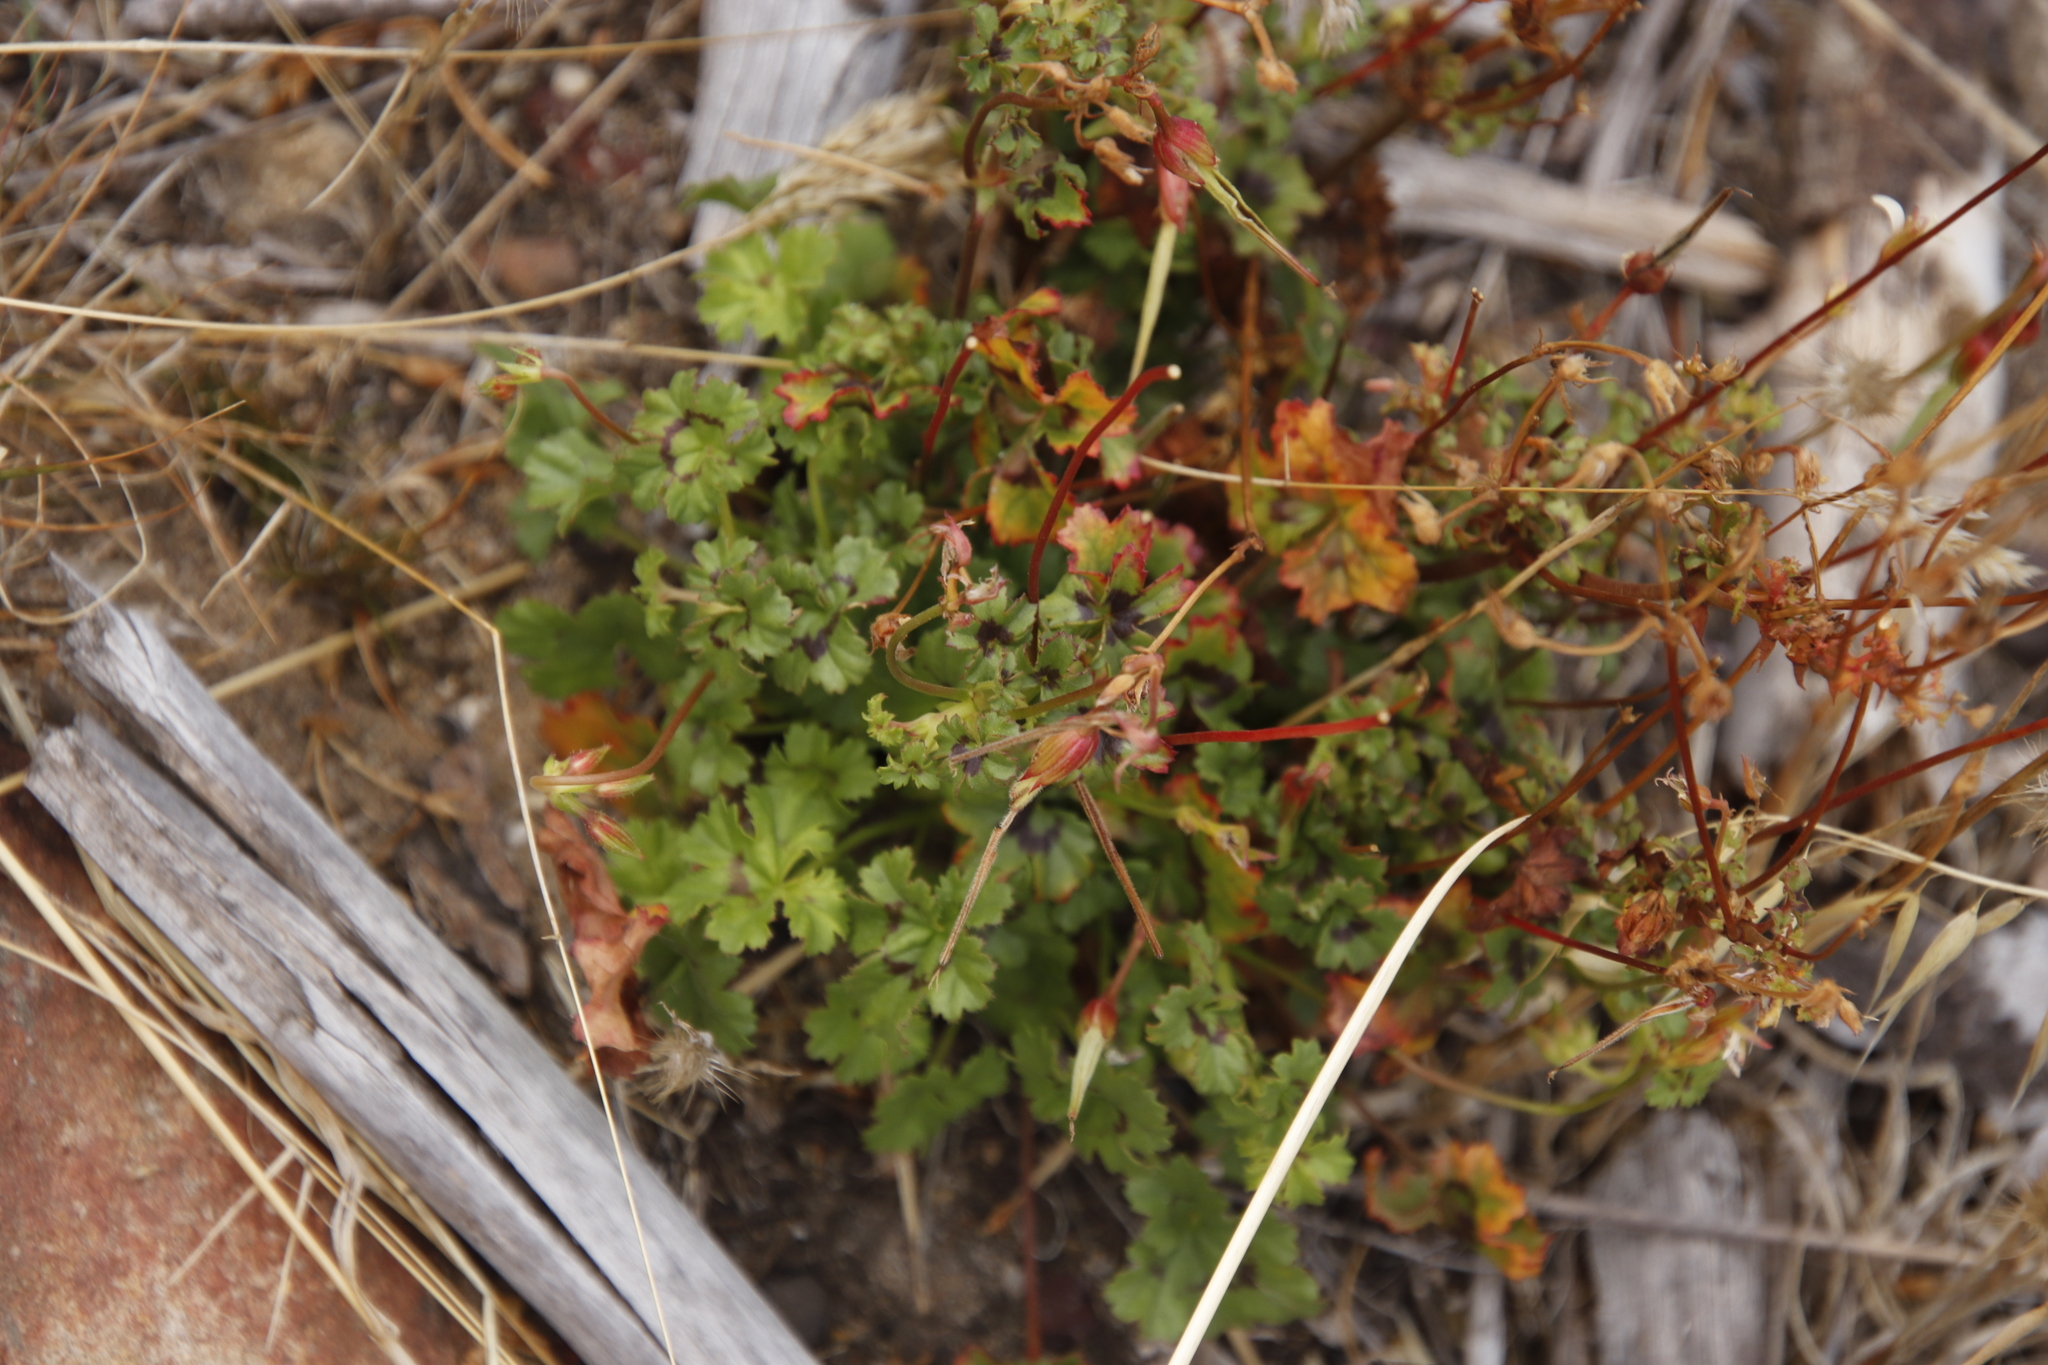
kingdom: Plantae
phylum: Tracheophyta
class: Magnoliopsida
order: Geraniales
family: Geraniaceae
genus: Pelargonium
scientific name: Pelargonium elongatum
